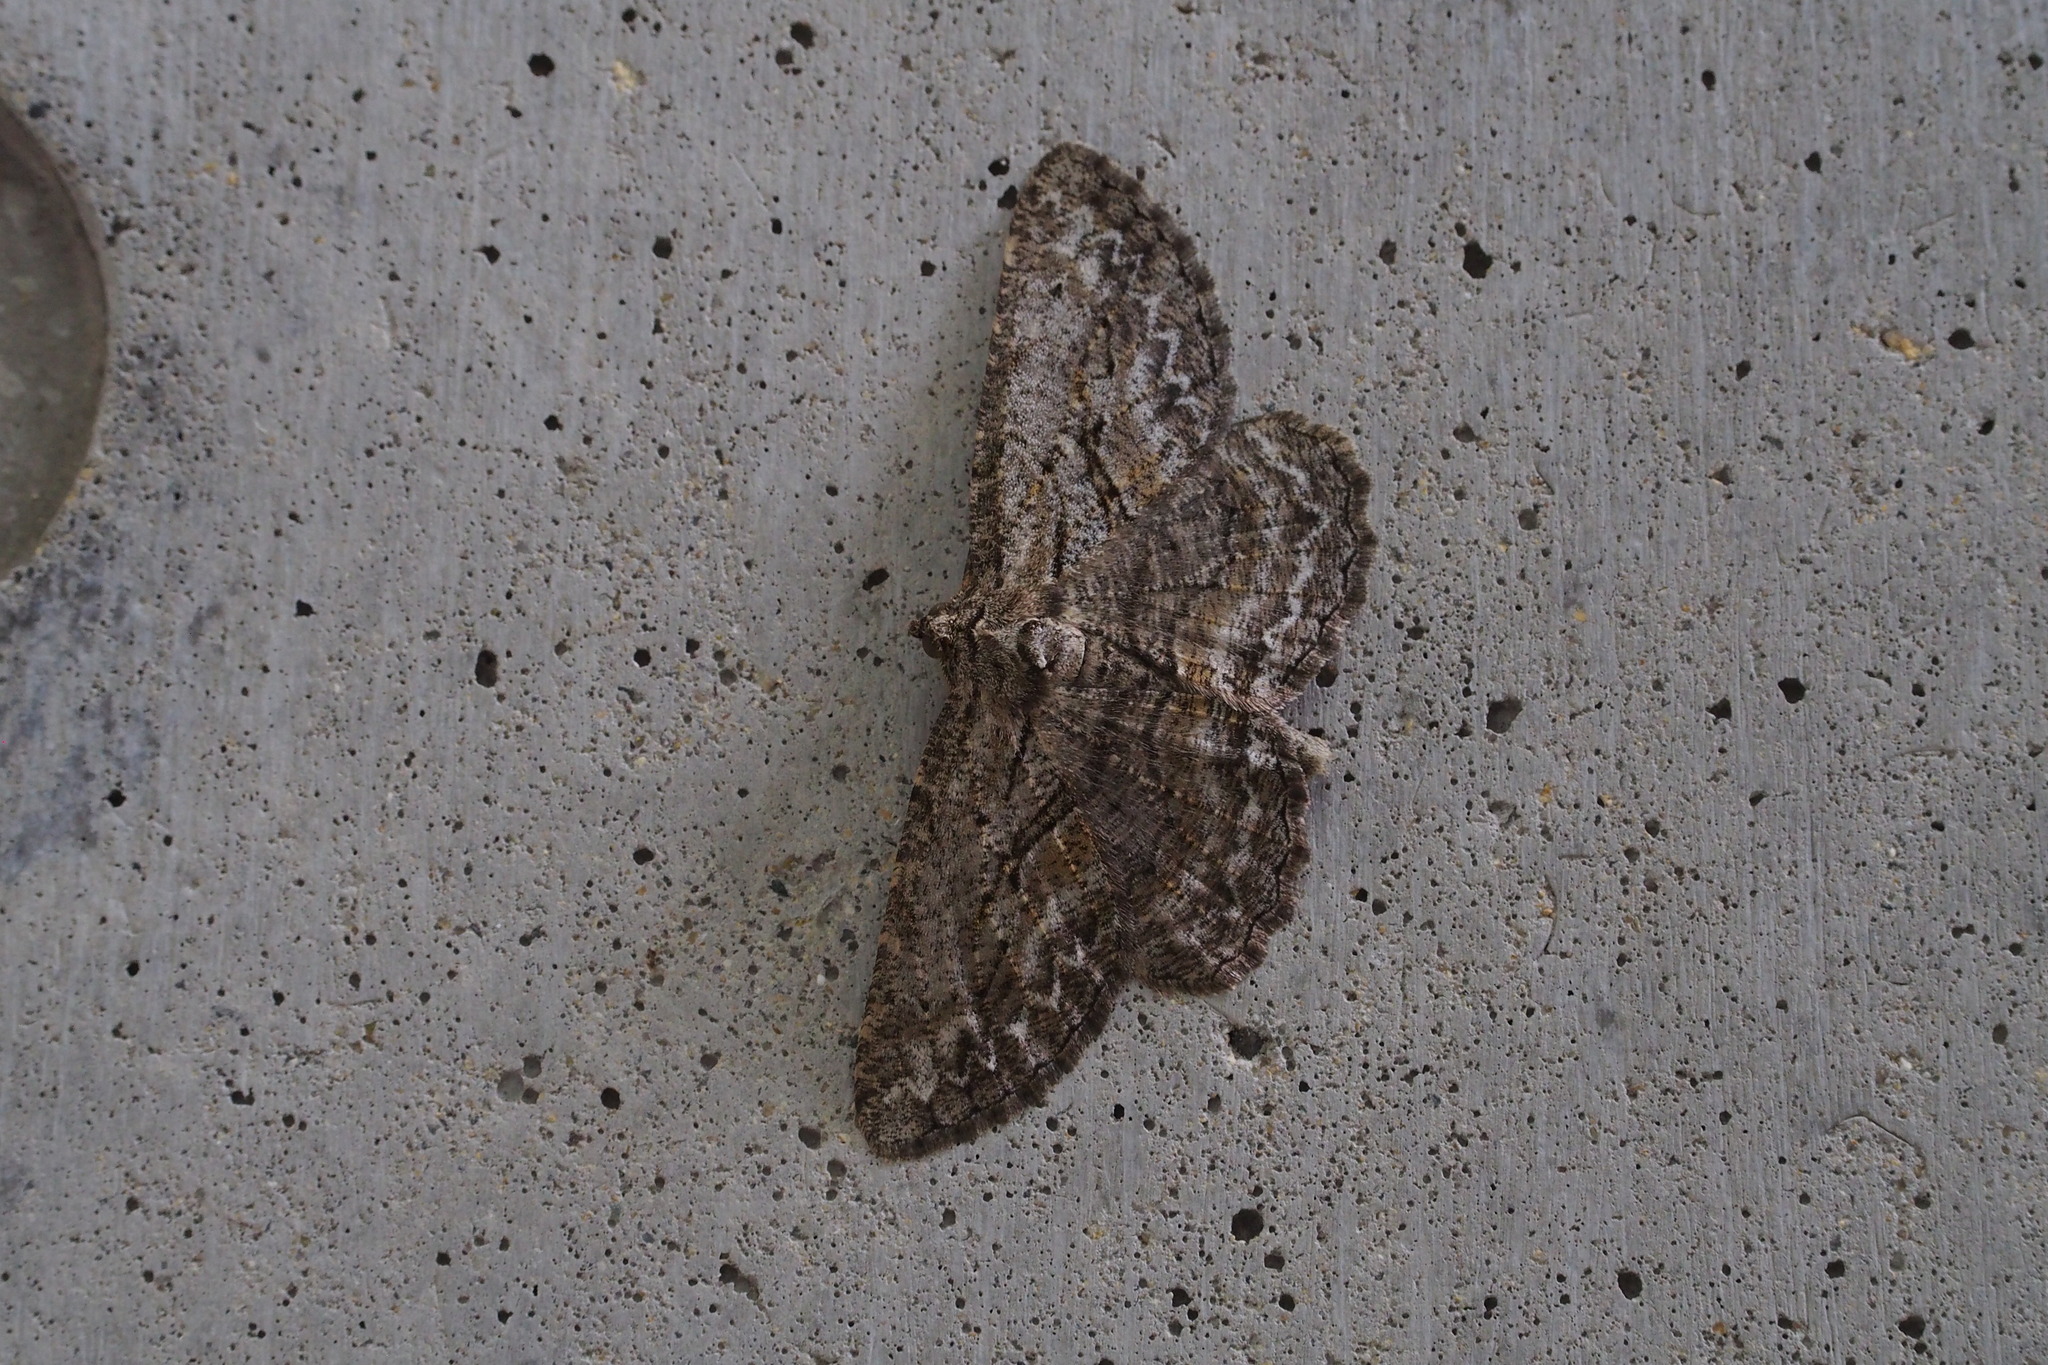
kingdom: Animalia
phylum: Arthropoda
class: Insecta
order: Lepidoptera
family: Geometridae
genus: Heterarmia
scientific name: Heterarmia charon
